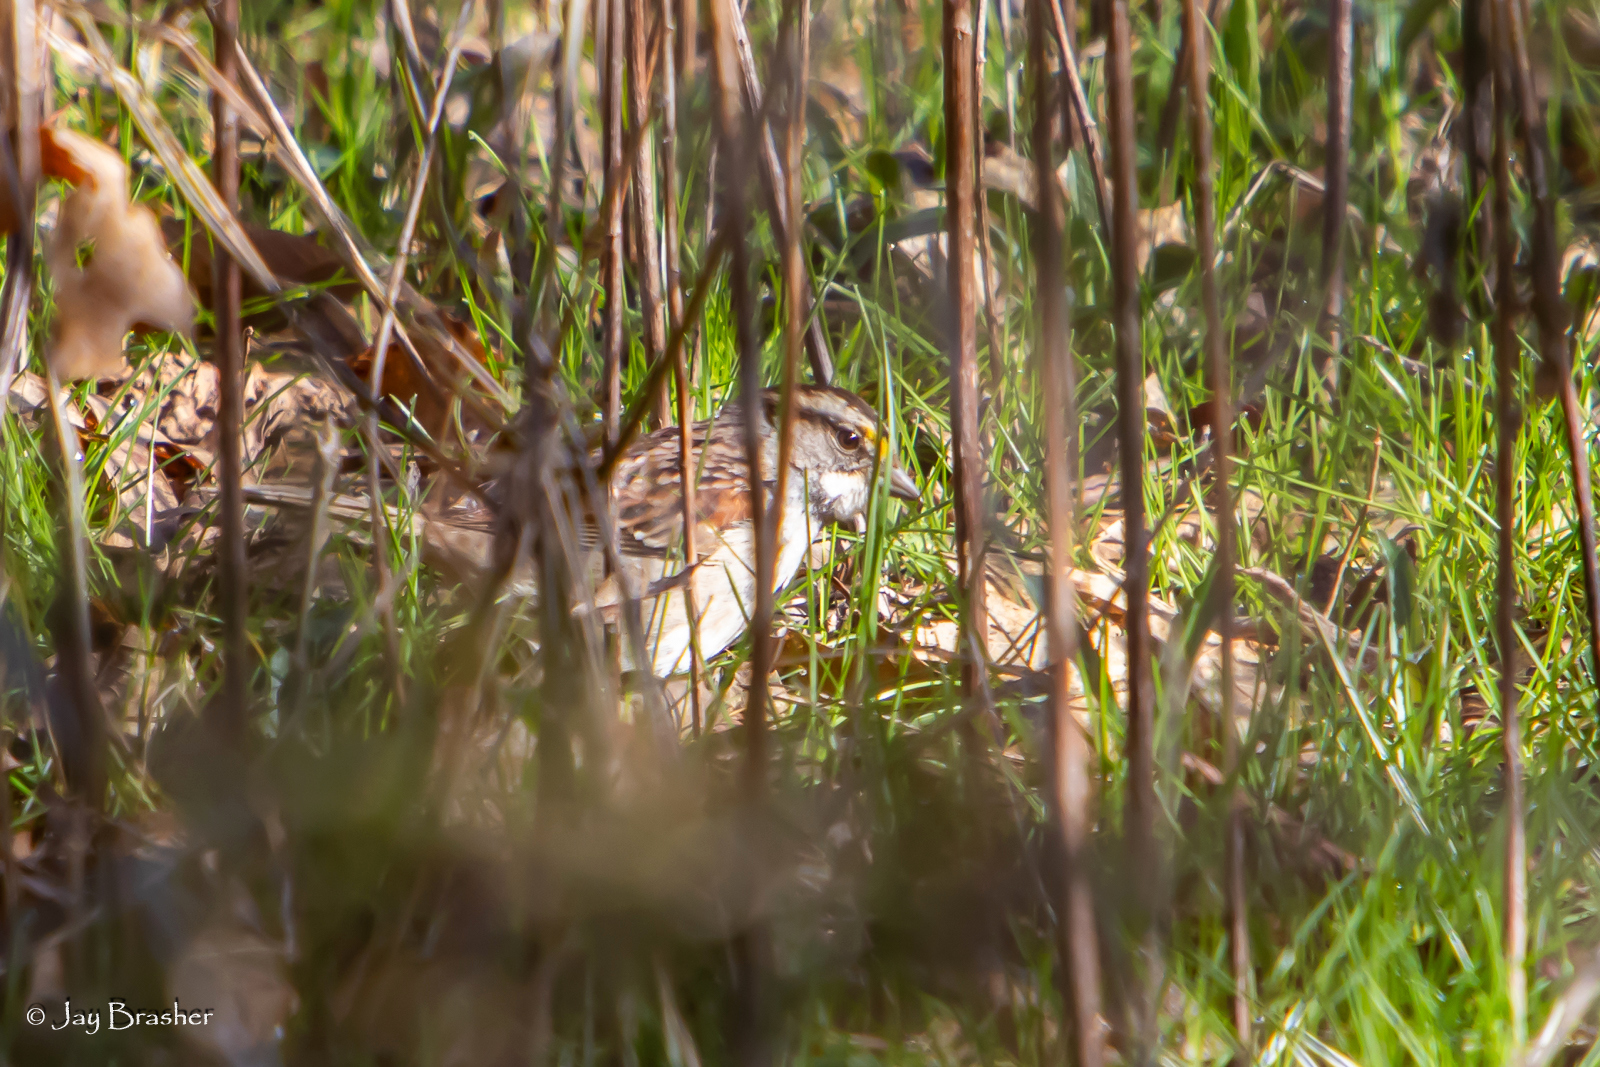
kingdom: Animalia
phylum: Chordata
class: Aves
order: Passeriformes
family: Passerellidae
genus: Zonotrichia
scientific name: Zonotrichia albicollis
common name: White-throated sparrow
